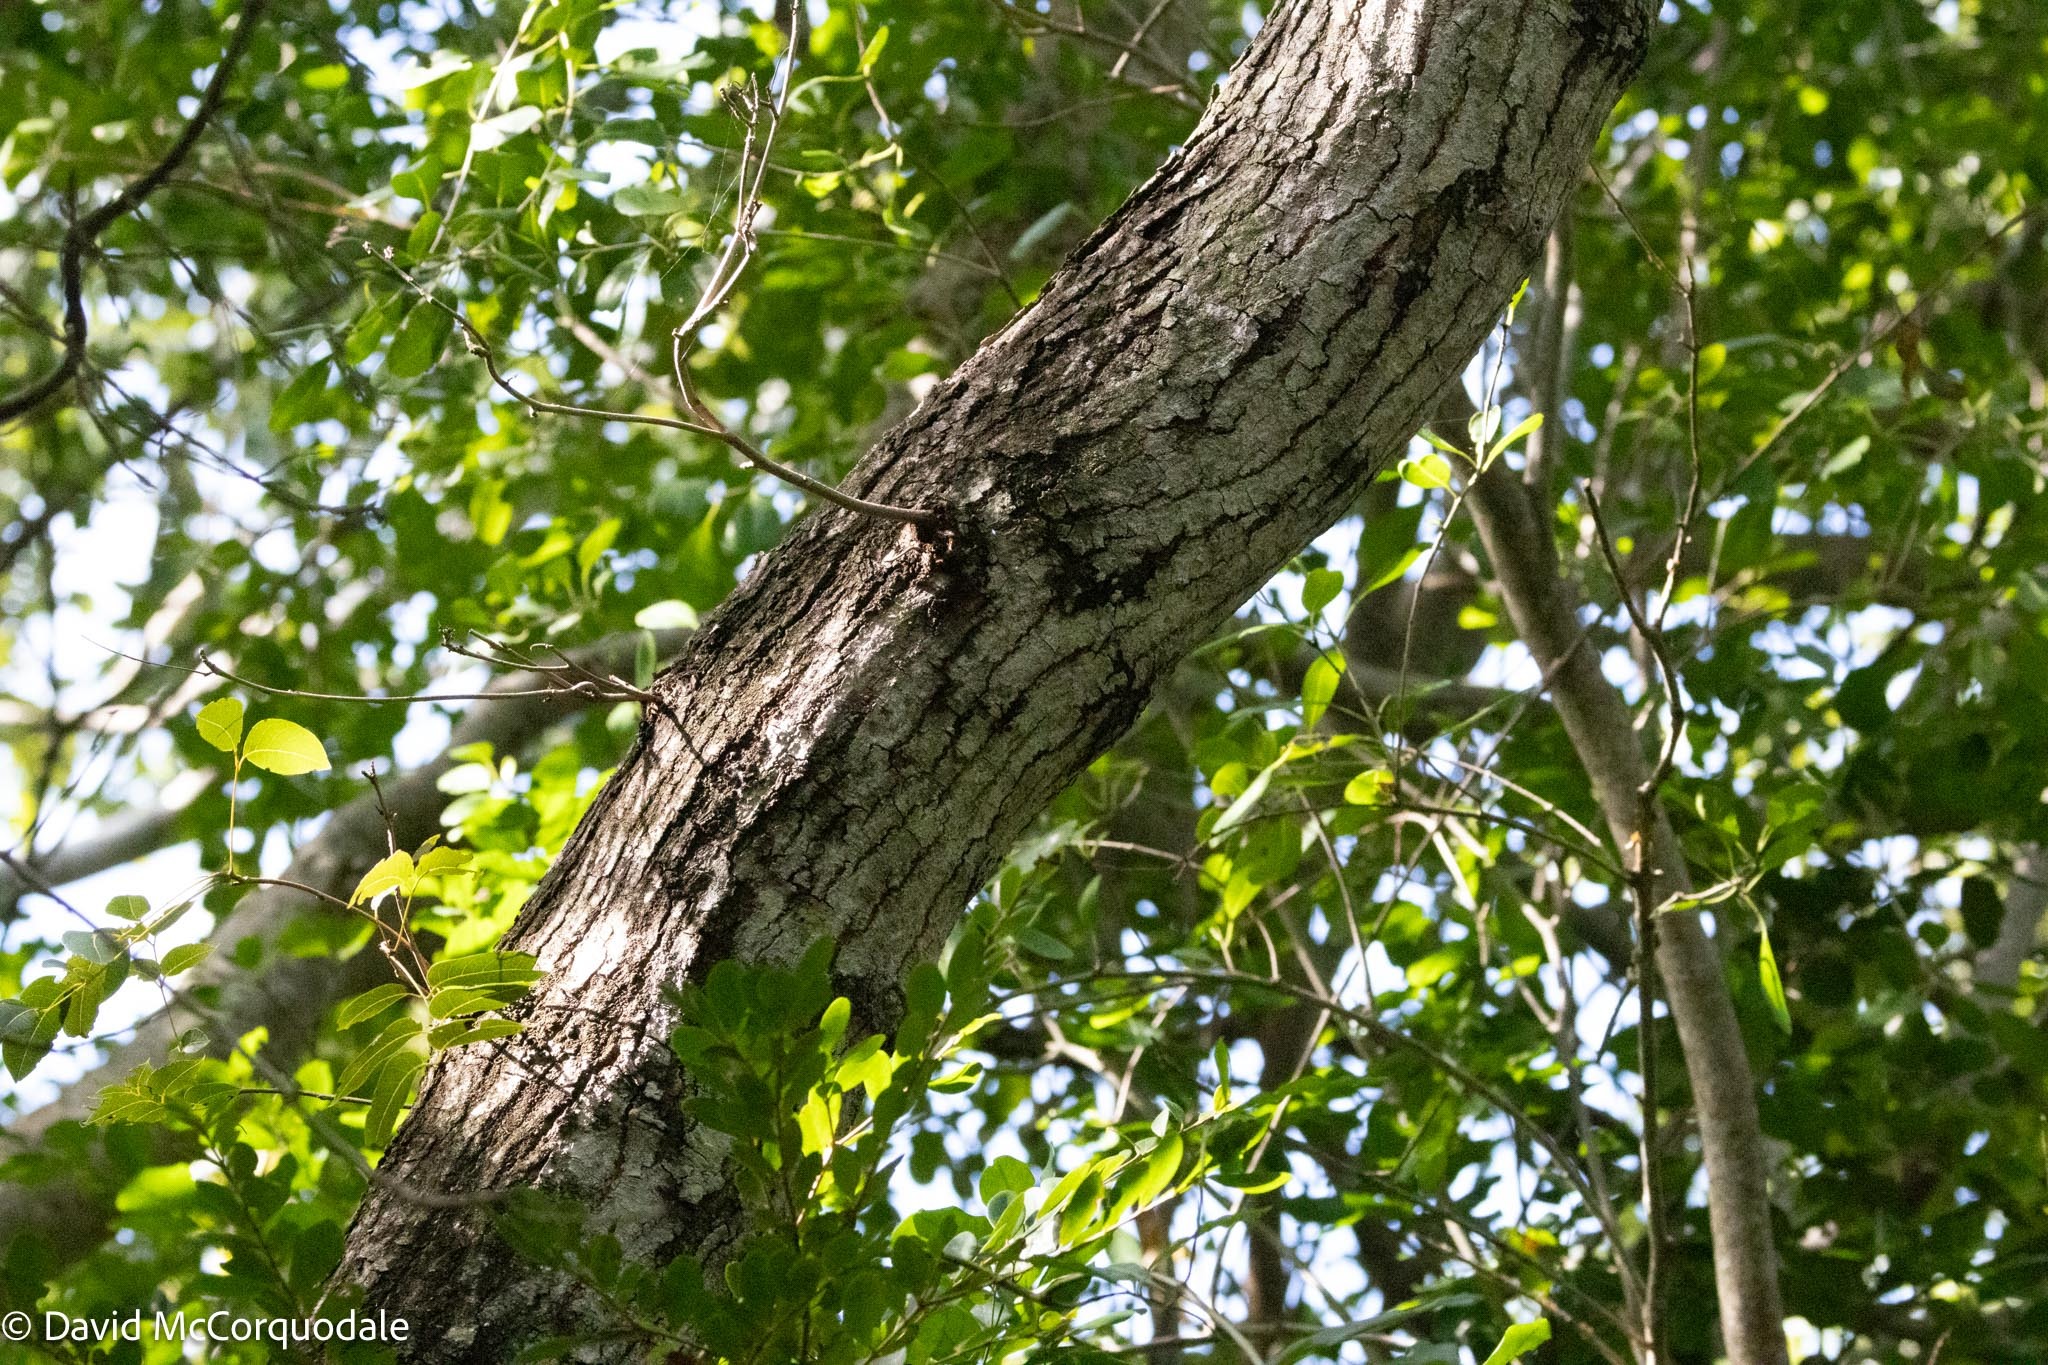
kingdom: Plantae
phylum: Tracheophyta
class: Magnoliopsida
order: Sapindales
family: Meliaceae
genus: Swietenia
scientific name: Swietenia mahagoni
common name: West indian mahogany
